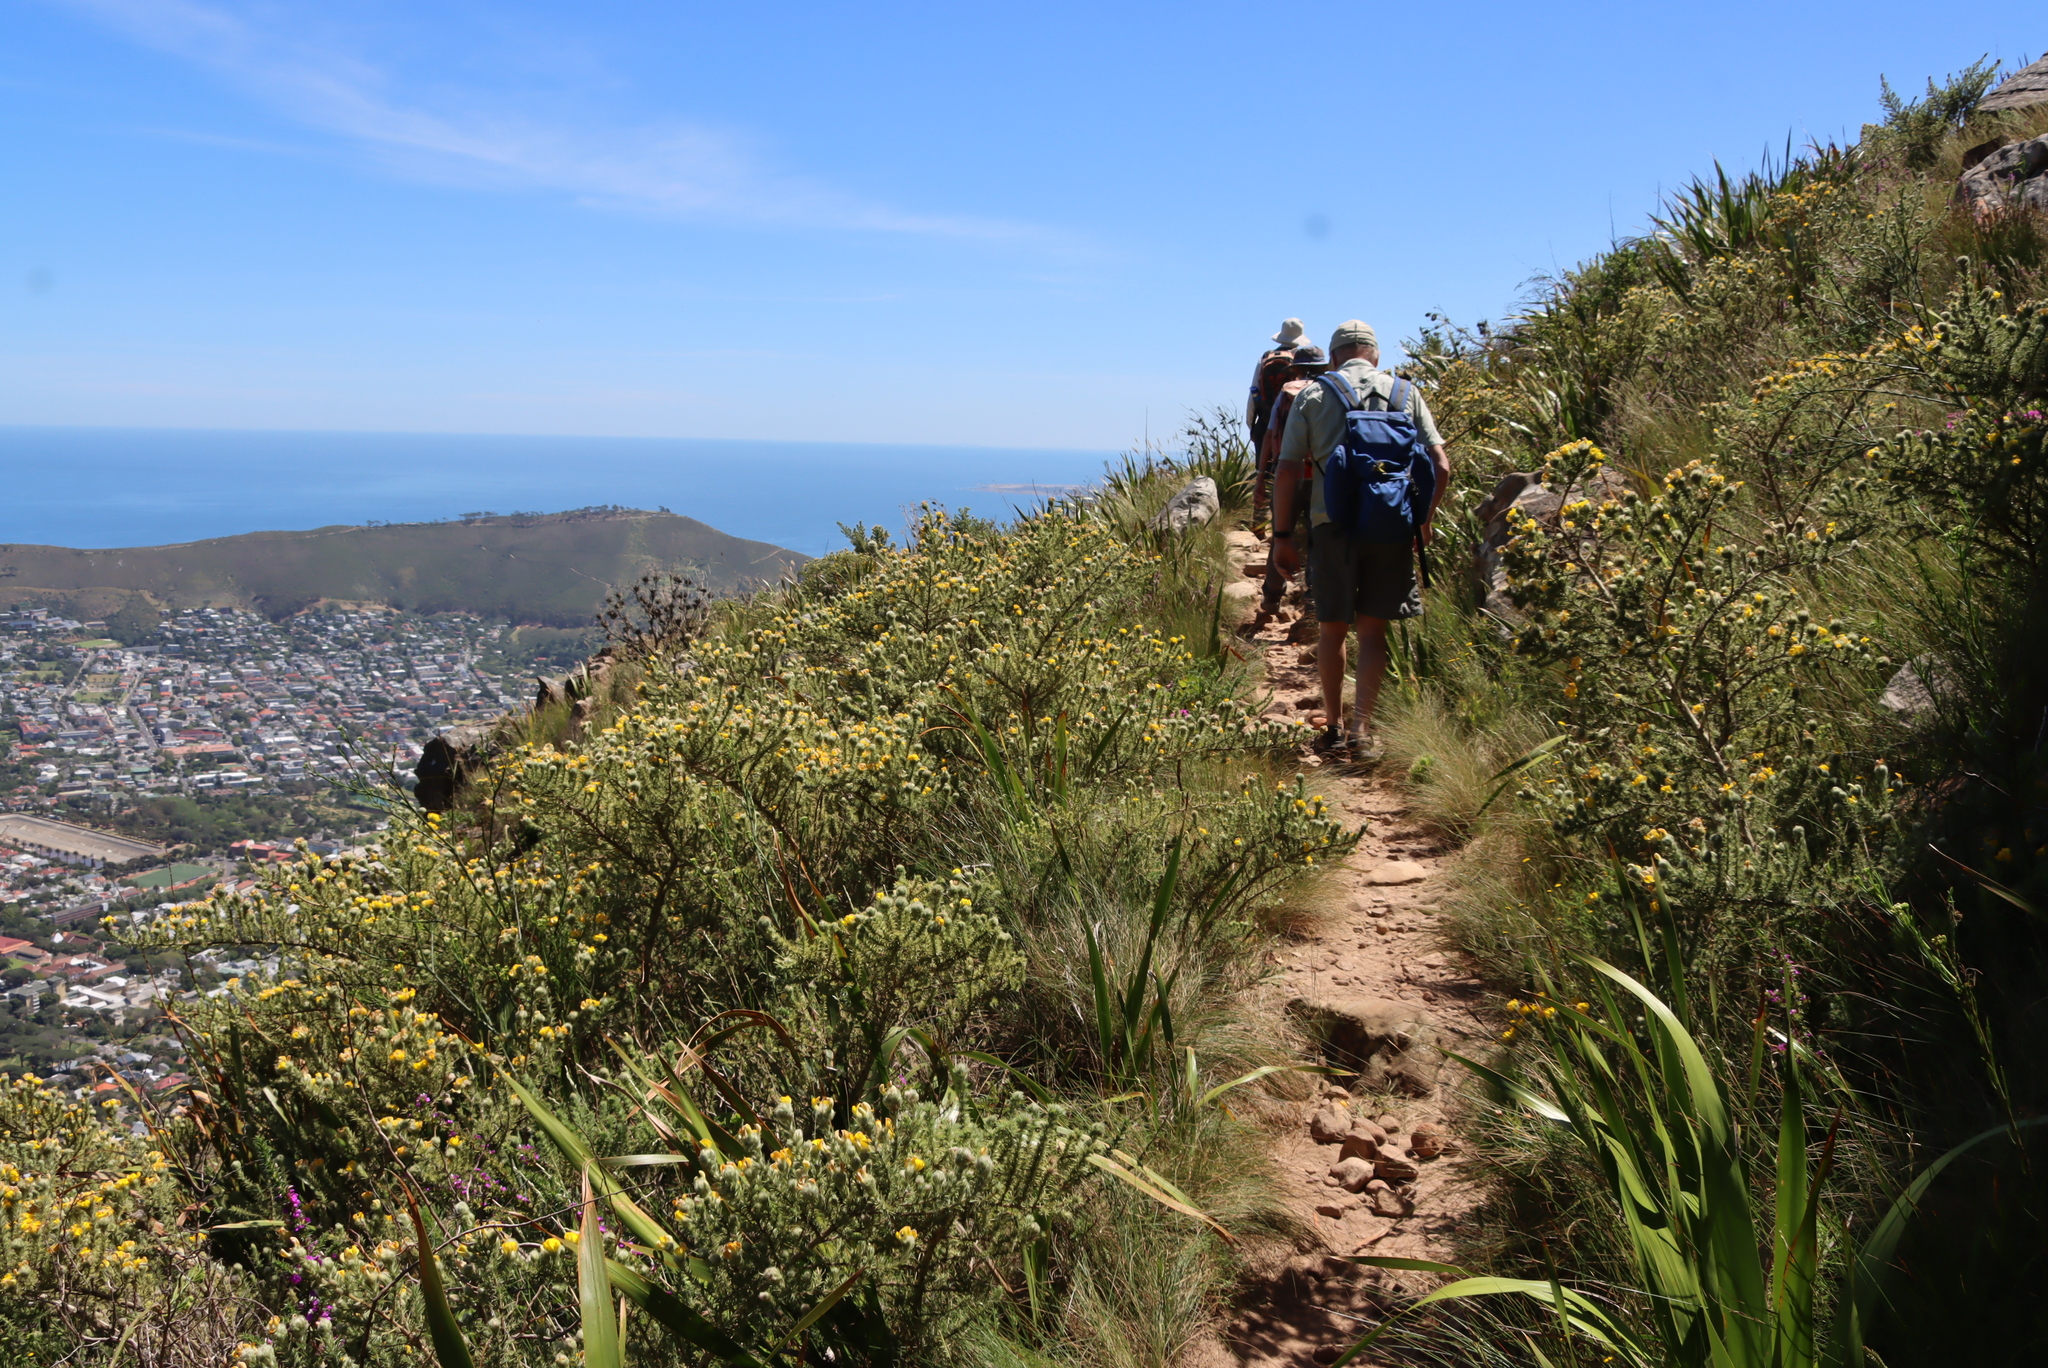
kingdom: Plantae
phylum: Tracheophyta
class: Magnoliopsida
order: Fabales
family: Fabaceae
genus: Aspalathus
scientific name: Aspalathus chenopoda
